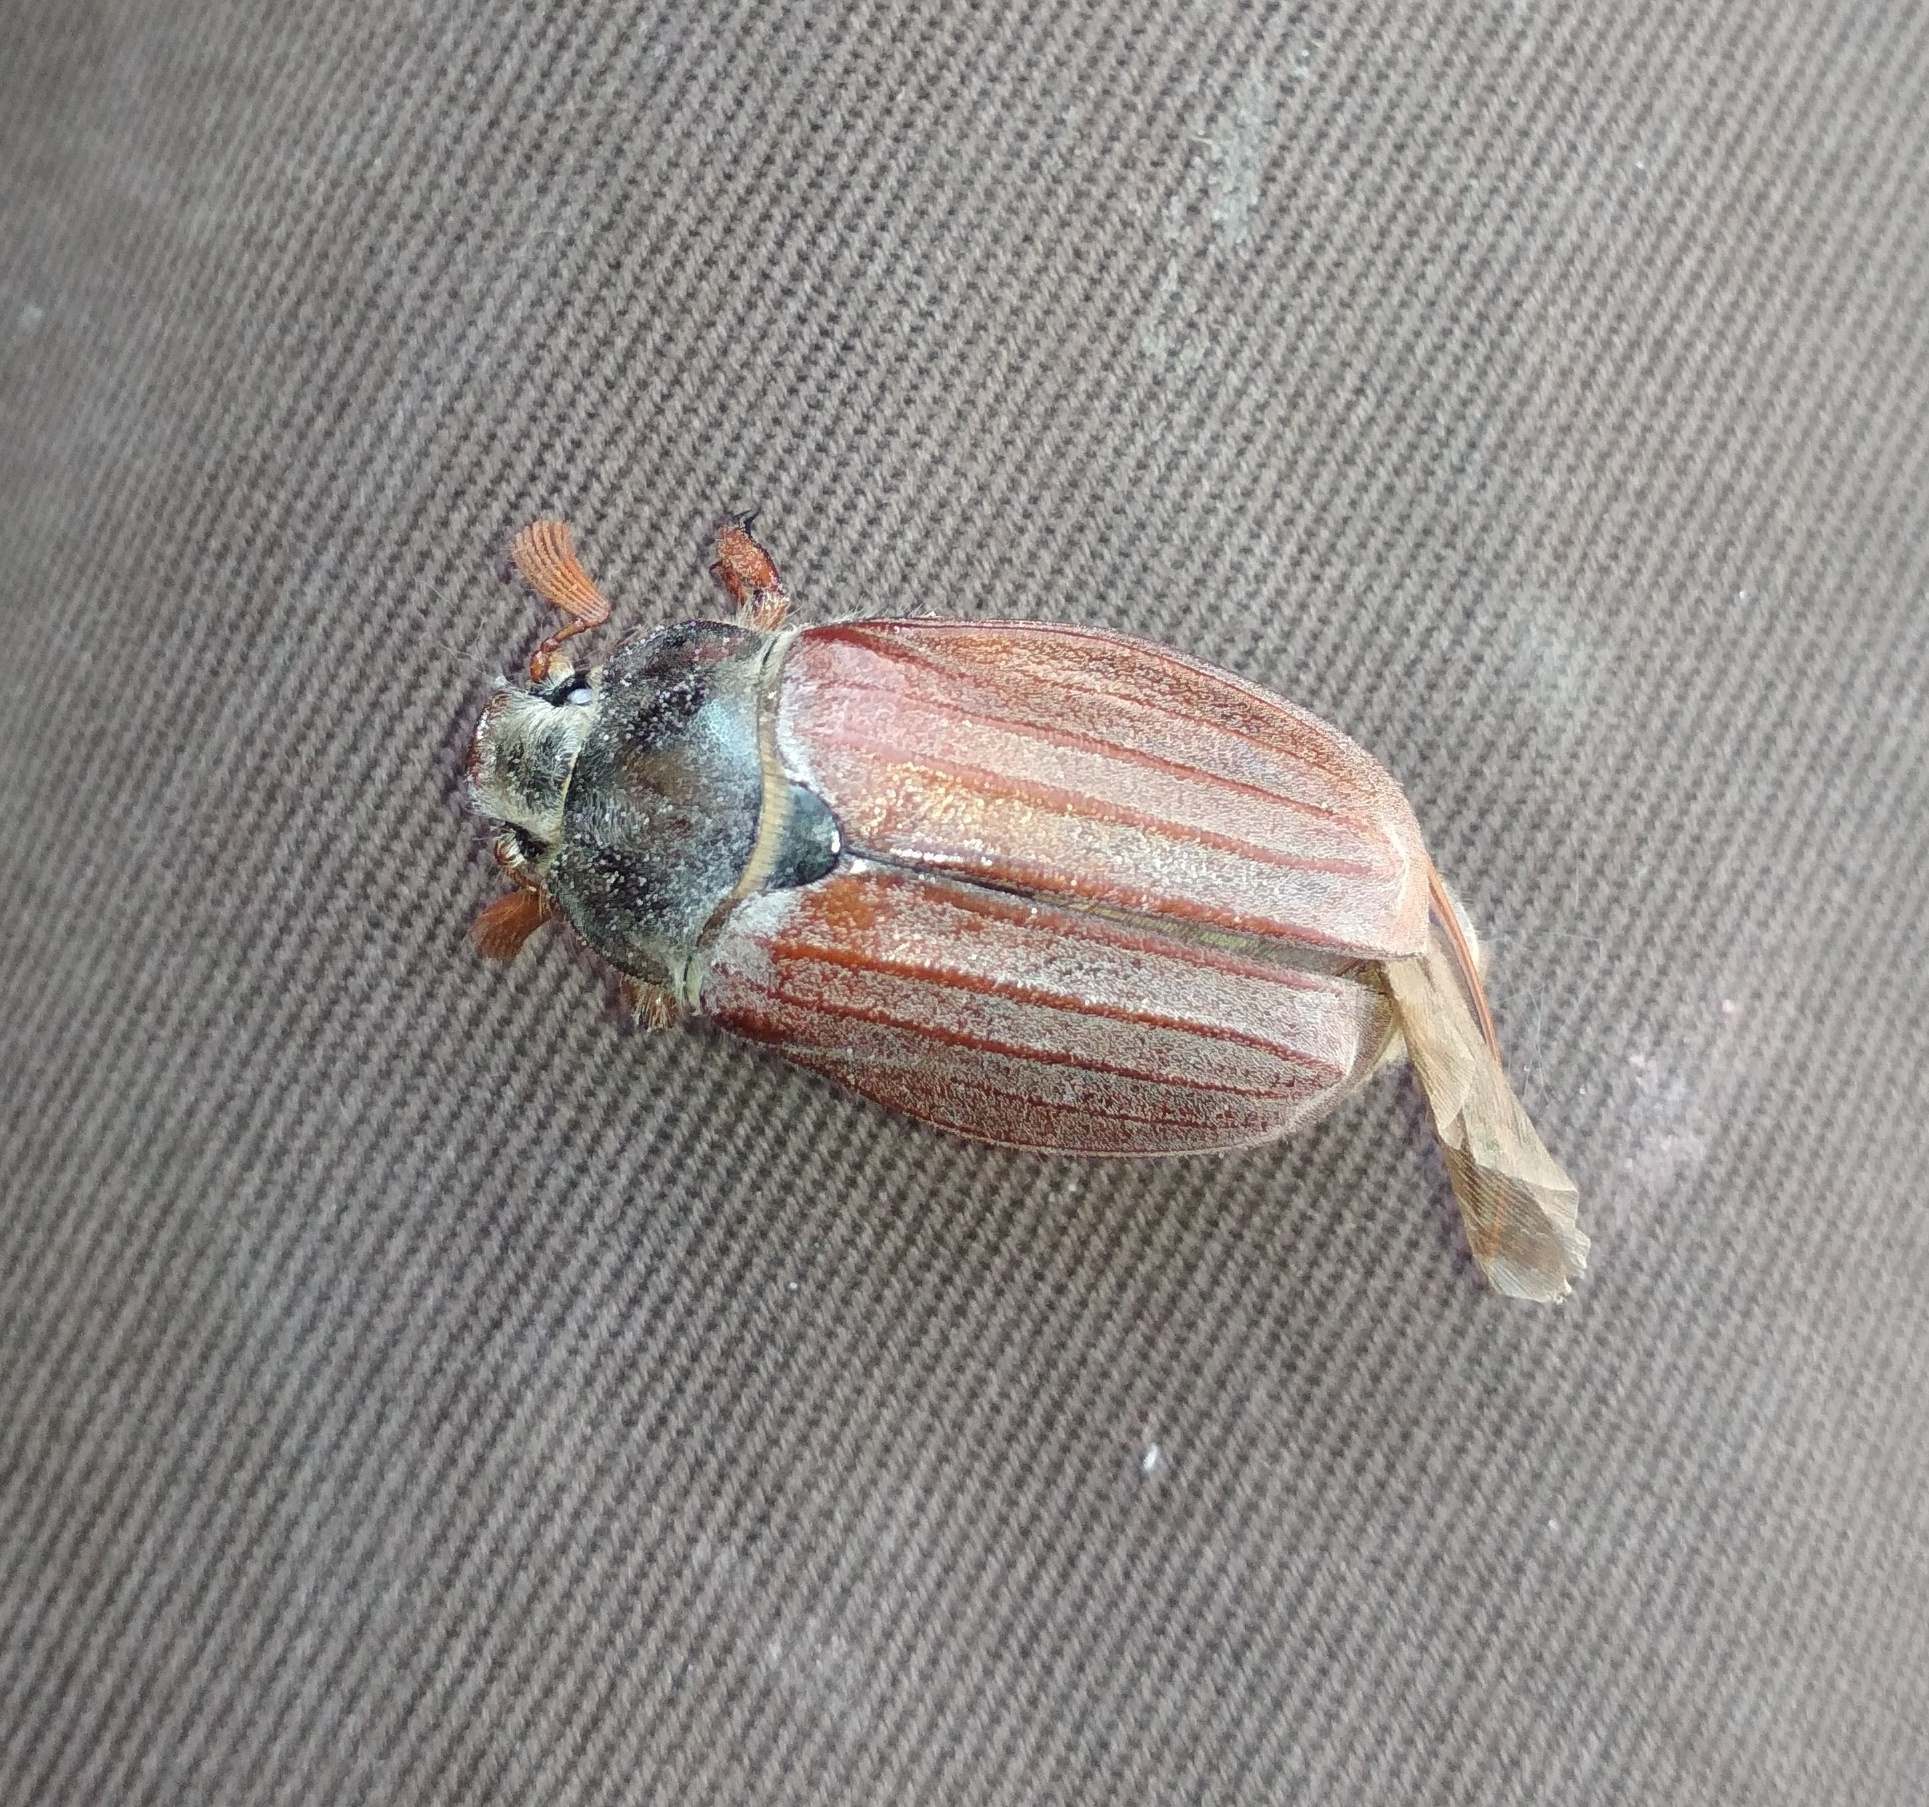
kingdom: Animalia
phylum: Arthropoda
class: Insecta
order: Coleoptera
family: Scarabaeidae
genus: Melolontha
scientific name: Melolontha melolontha
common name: Cockchafer maybeetle
